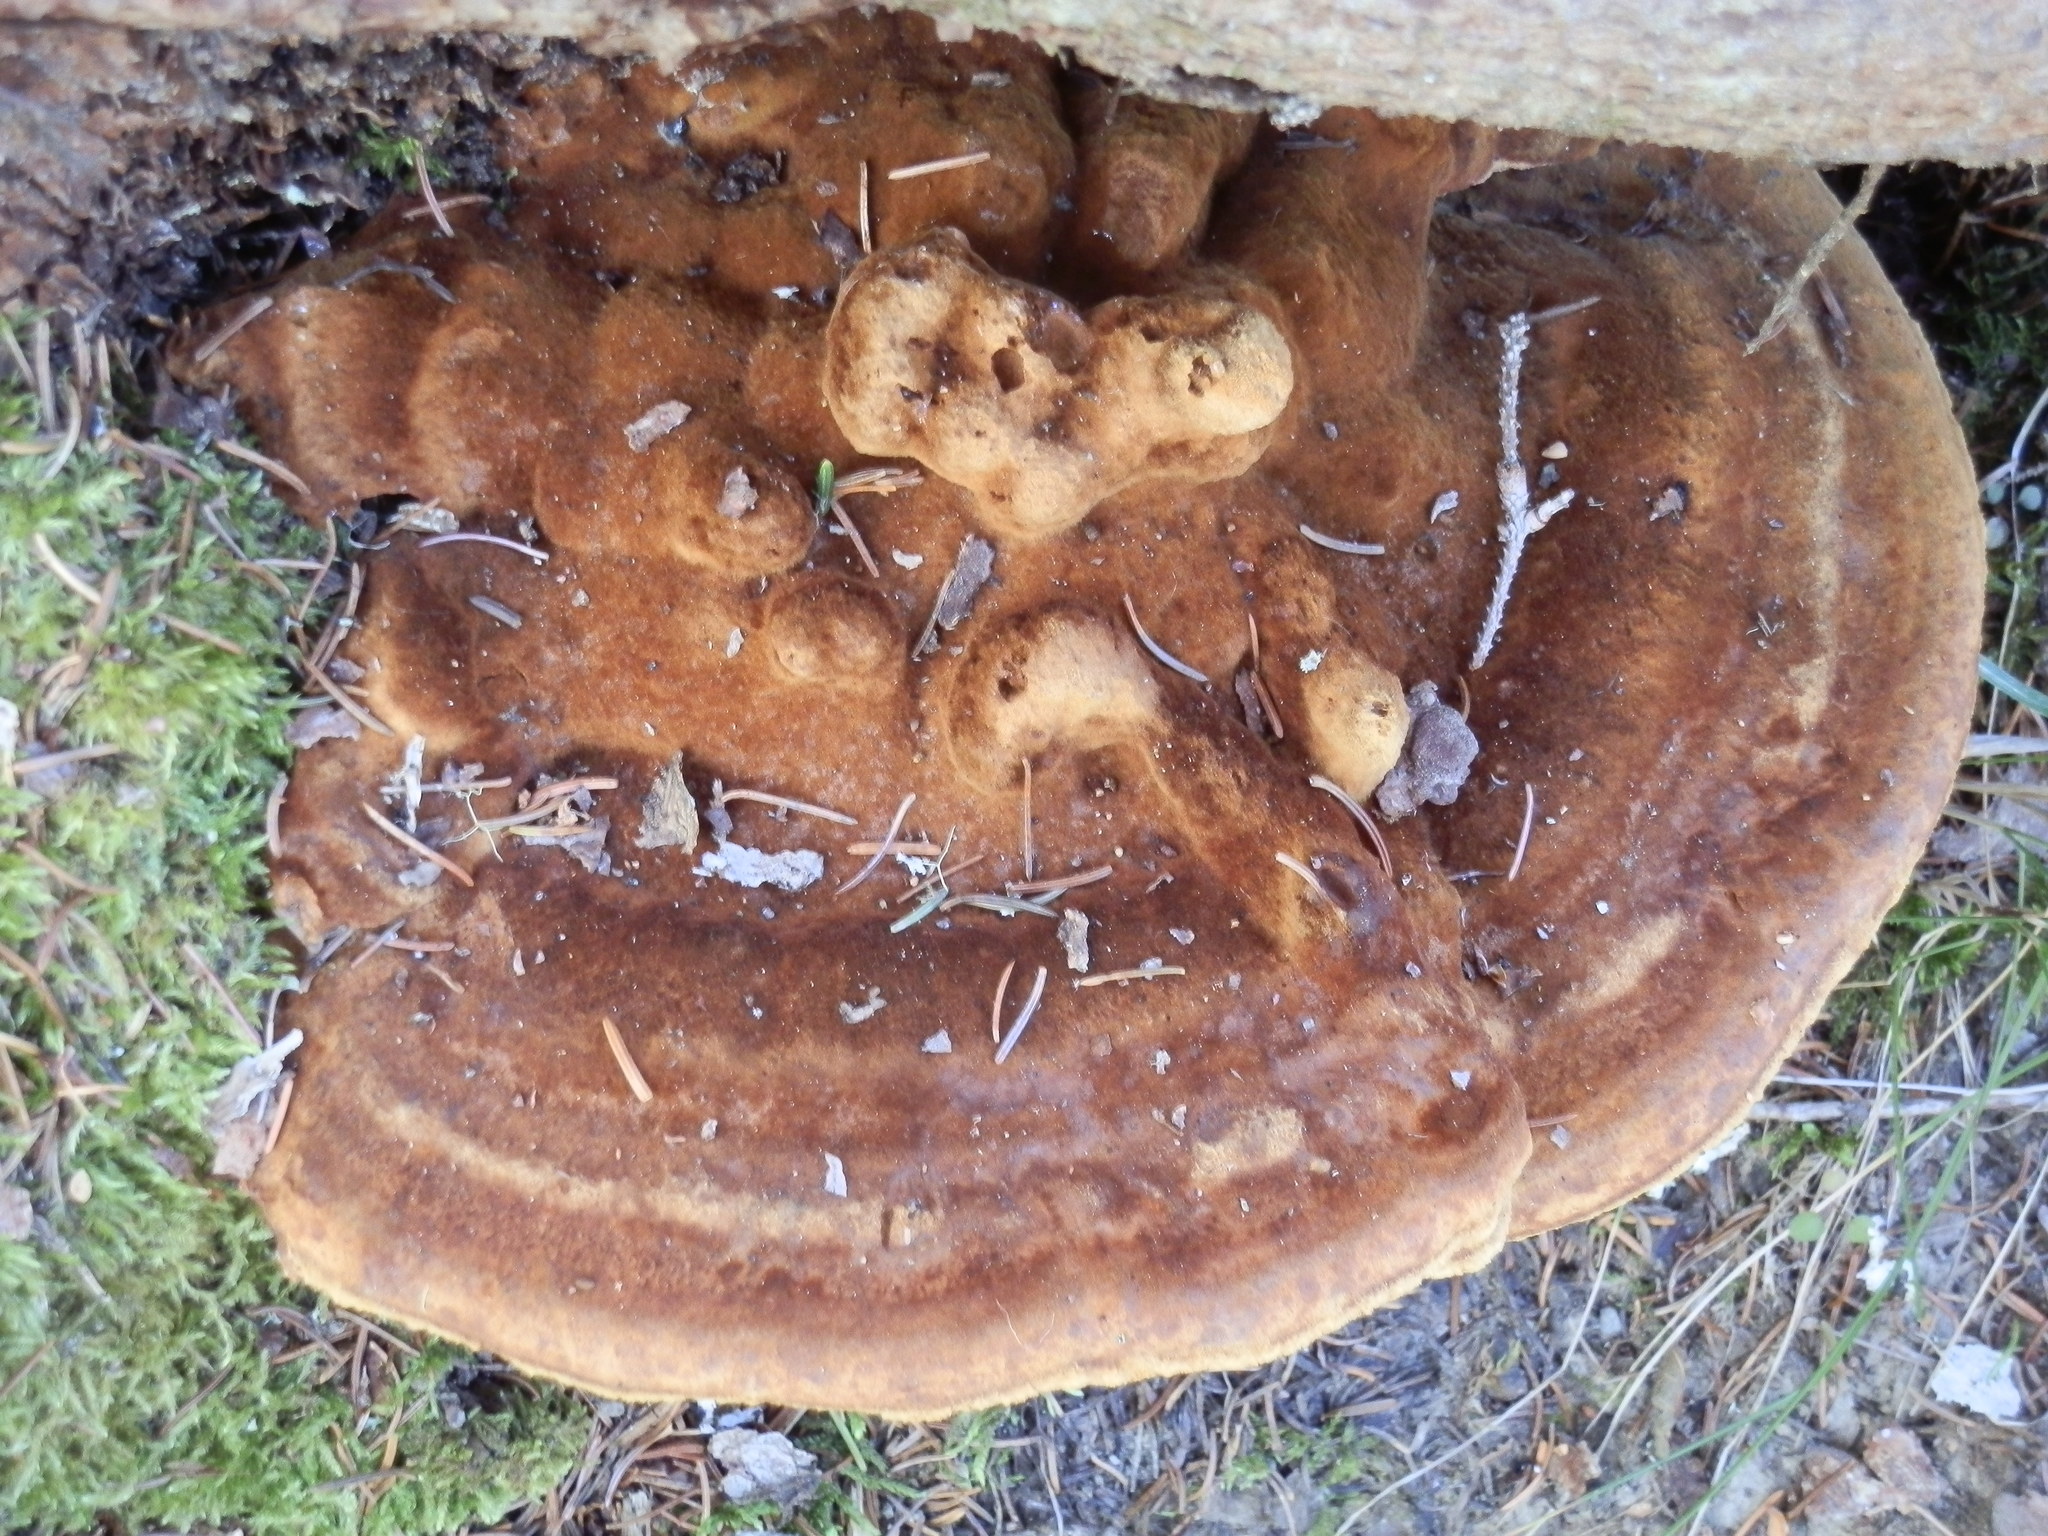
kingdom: Fungi
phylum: Basidiomycota
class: Agaricomycetes
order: Polyporales
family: Laetiporaceae
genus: Phaeolus
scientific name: Phaeolus schweinitzii
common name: Dyer's mazegill
